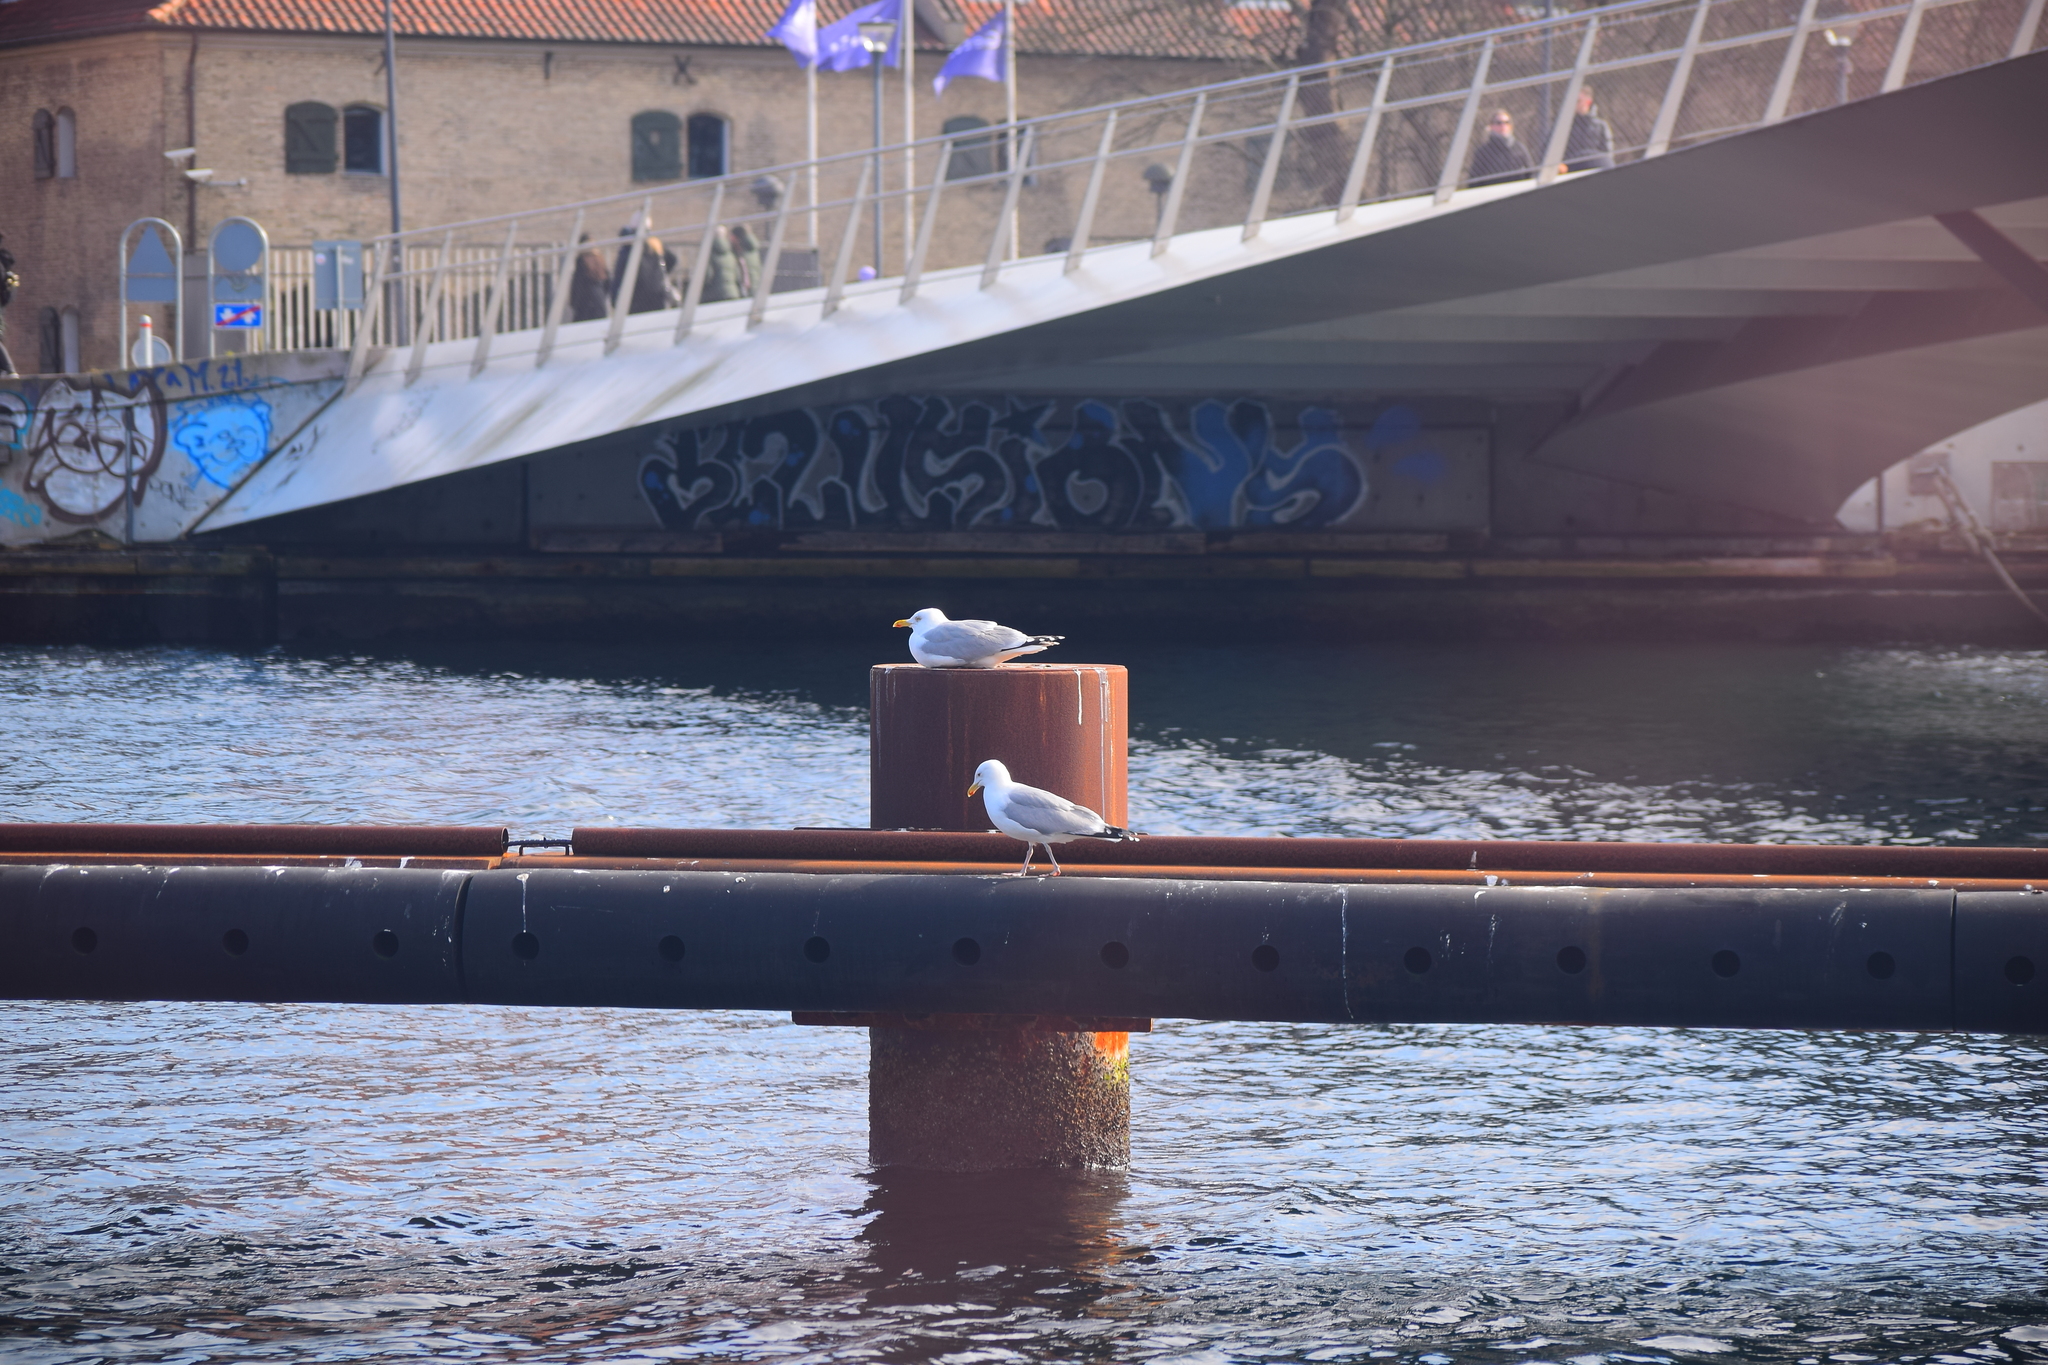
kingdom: Animalia
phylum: Chordata
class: Aves
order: Charadriiformes
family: Laridae
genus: Larus
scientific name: Larus argentatus
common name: Herring gull
